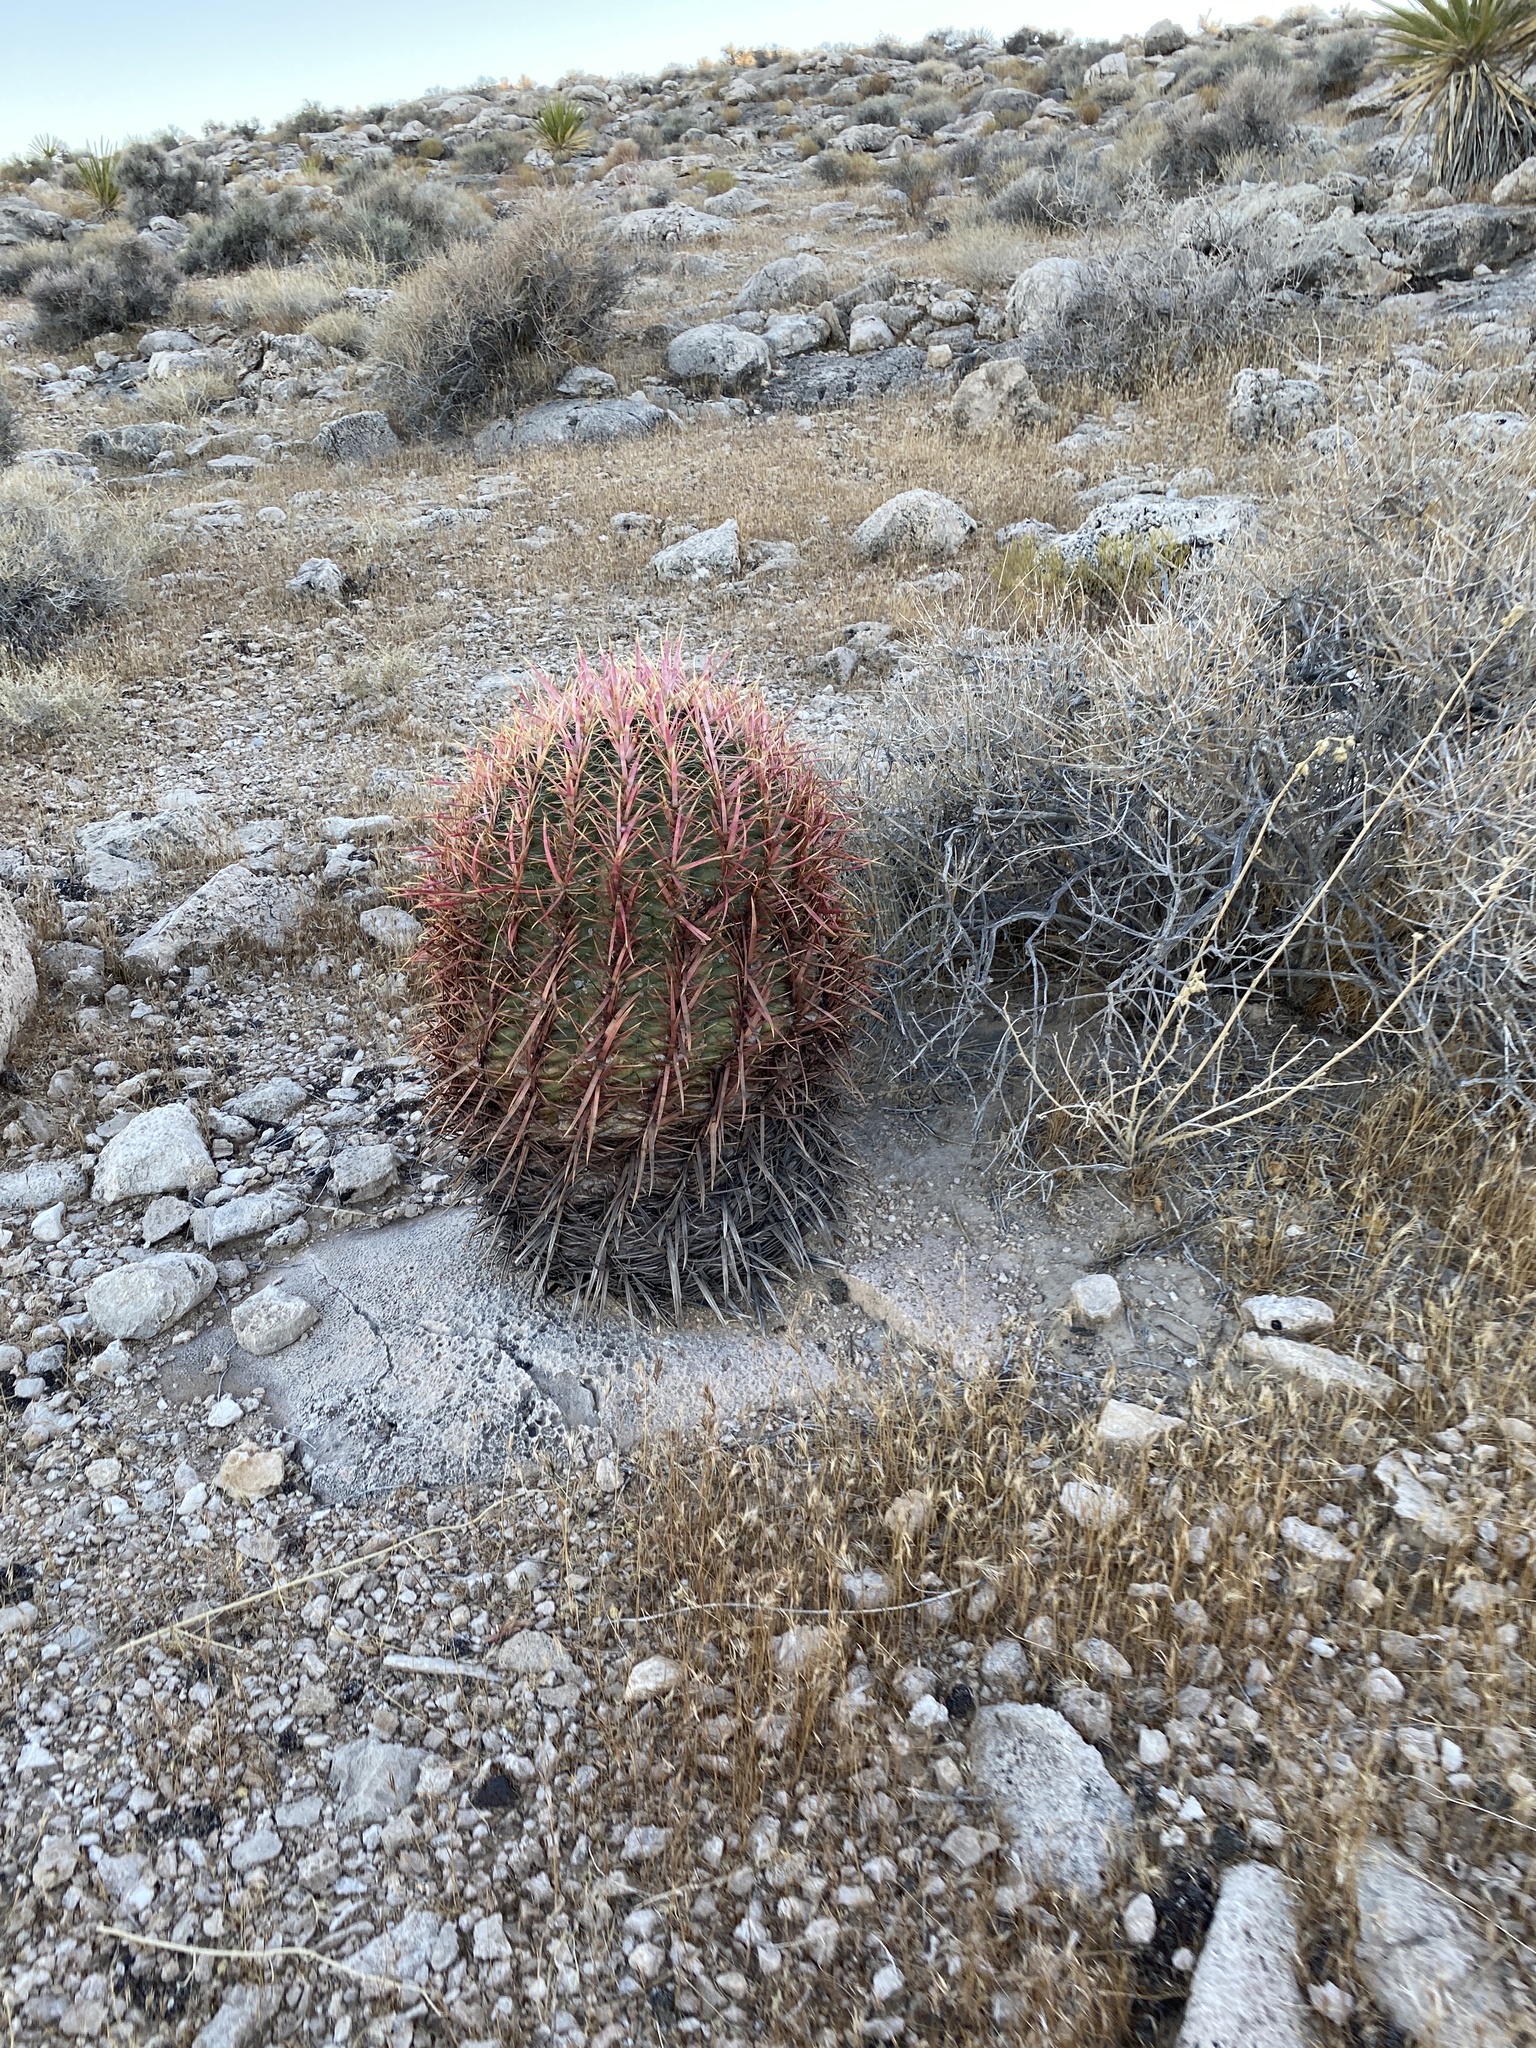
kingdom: Plantae
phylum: Tracheophyta
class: Magnoliopsida
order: Caryophyllales
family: Cactaceae
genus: Ferocactus
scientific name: Ferocactus cylindraceus
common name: California barrel cactus
